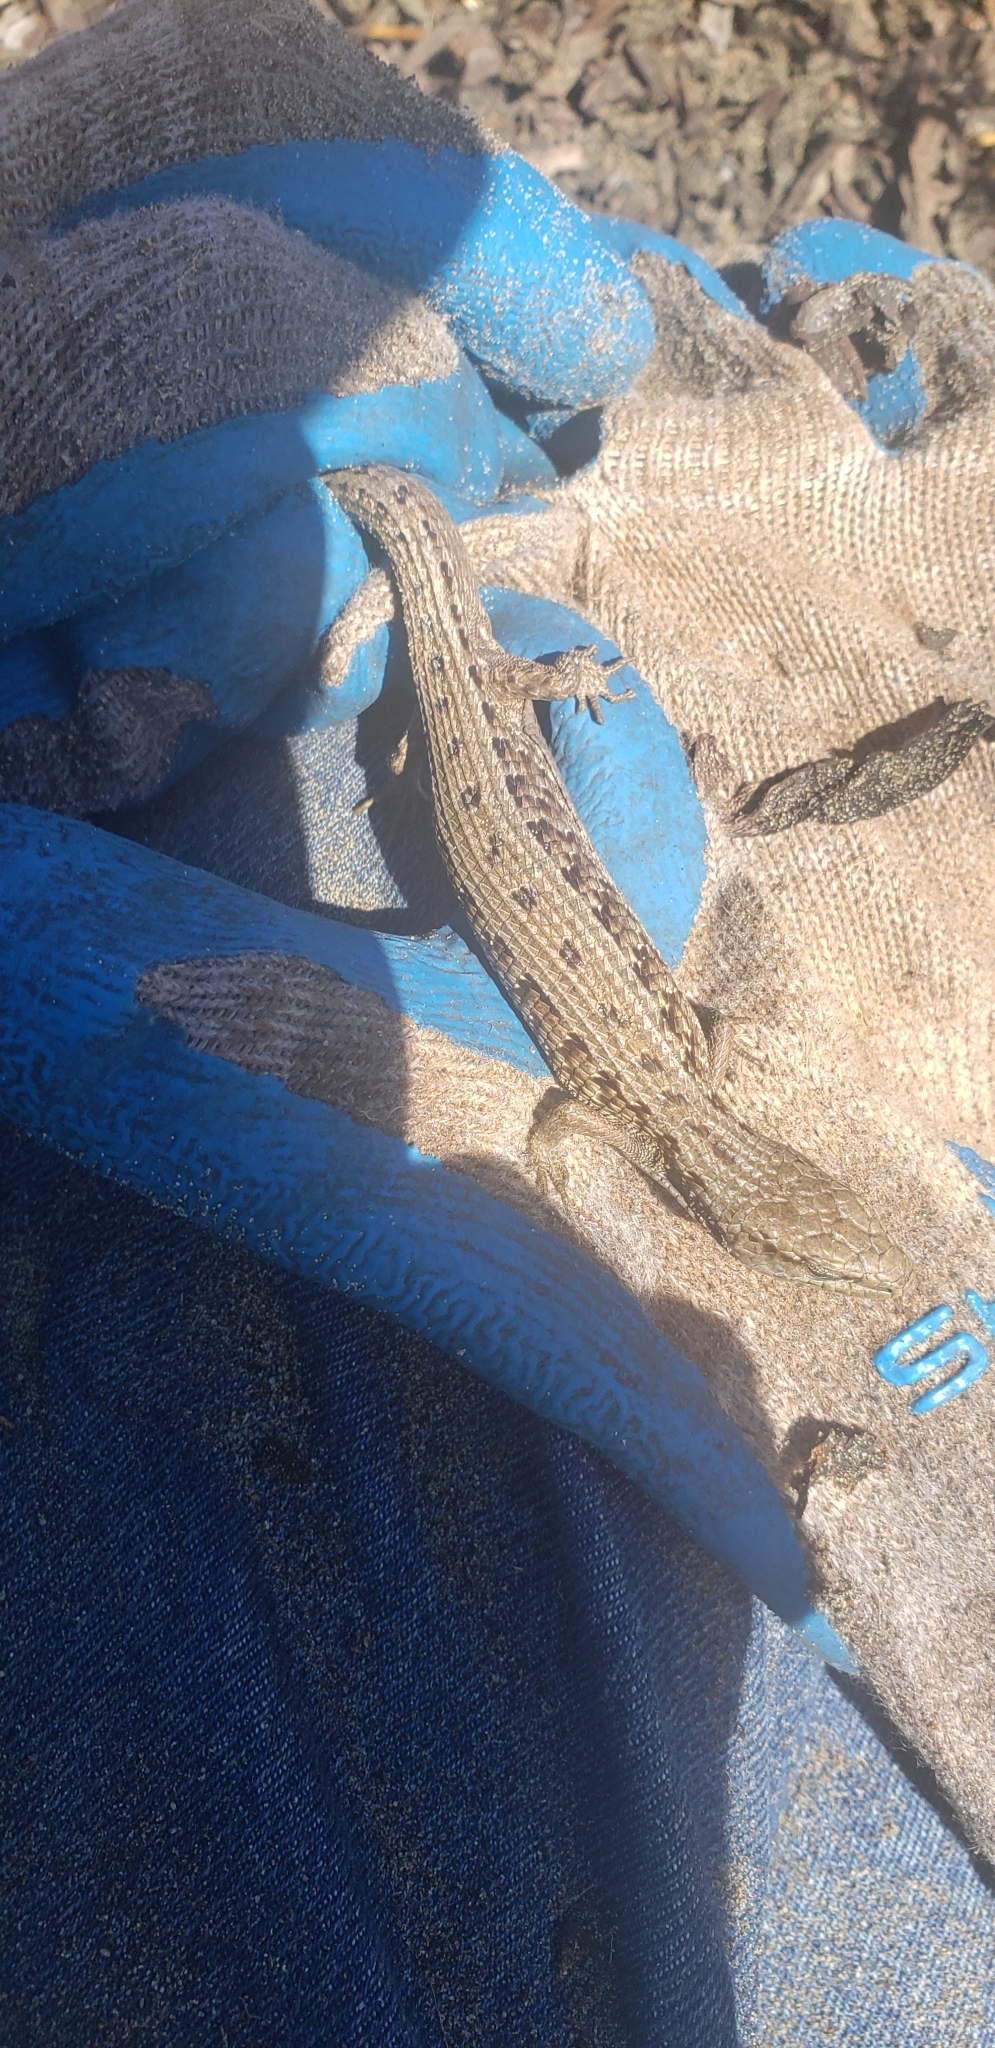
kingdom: Animalia
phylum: Chordata
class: Squamata
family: Anguidae
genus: Elgaria
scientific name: Elgaria coerulea
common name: Northern alligator lizard
